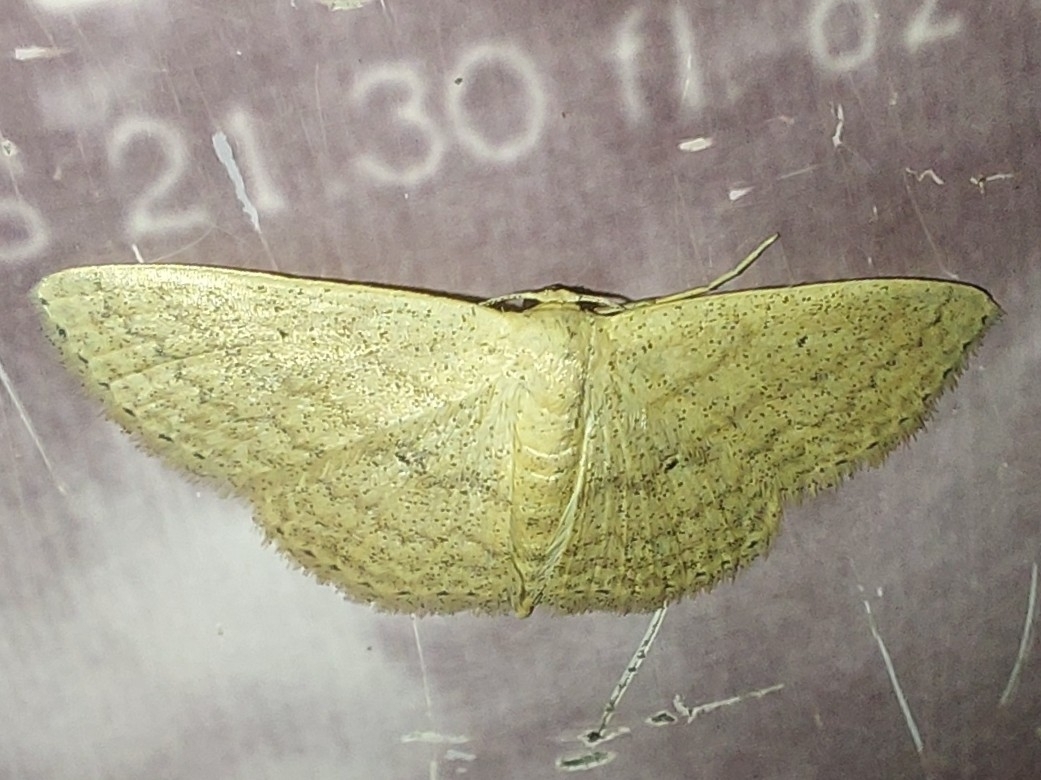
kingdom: Animalia
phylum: Arthropoda
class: Insecta
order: Lepidoptera
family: Geometridae
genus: Scopula
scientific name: Scopula minorata
